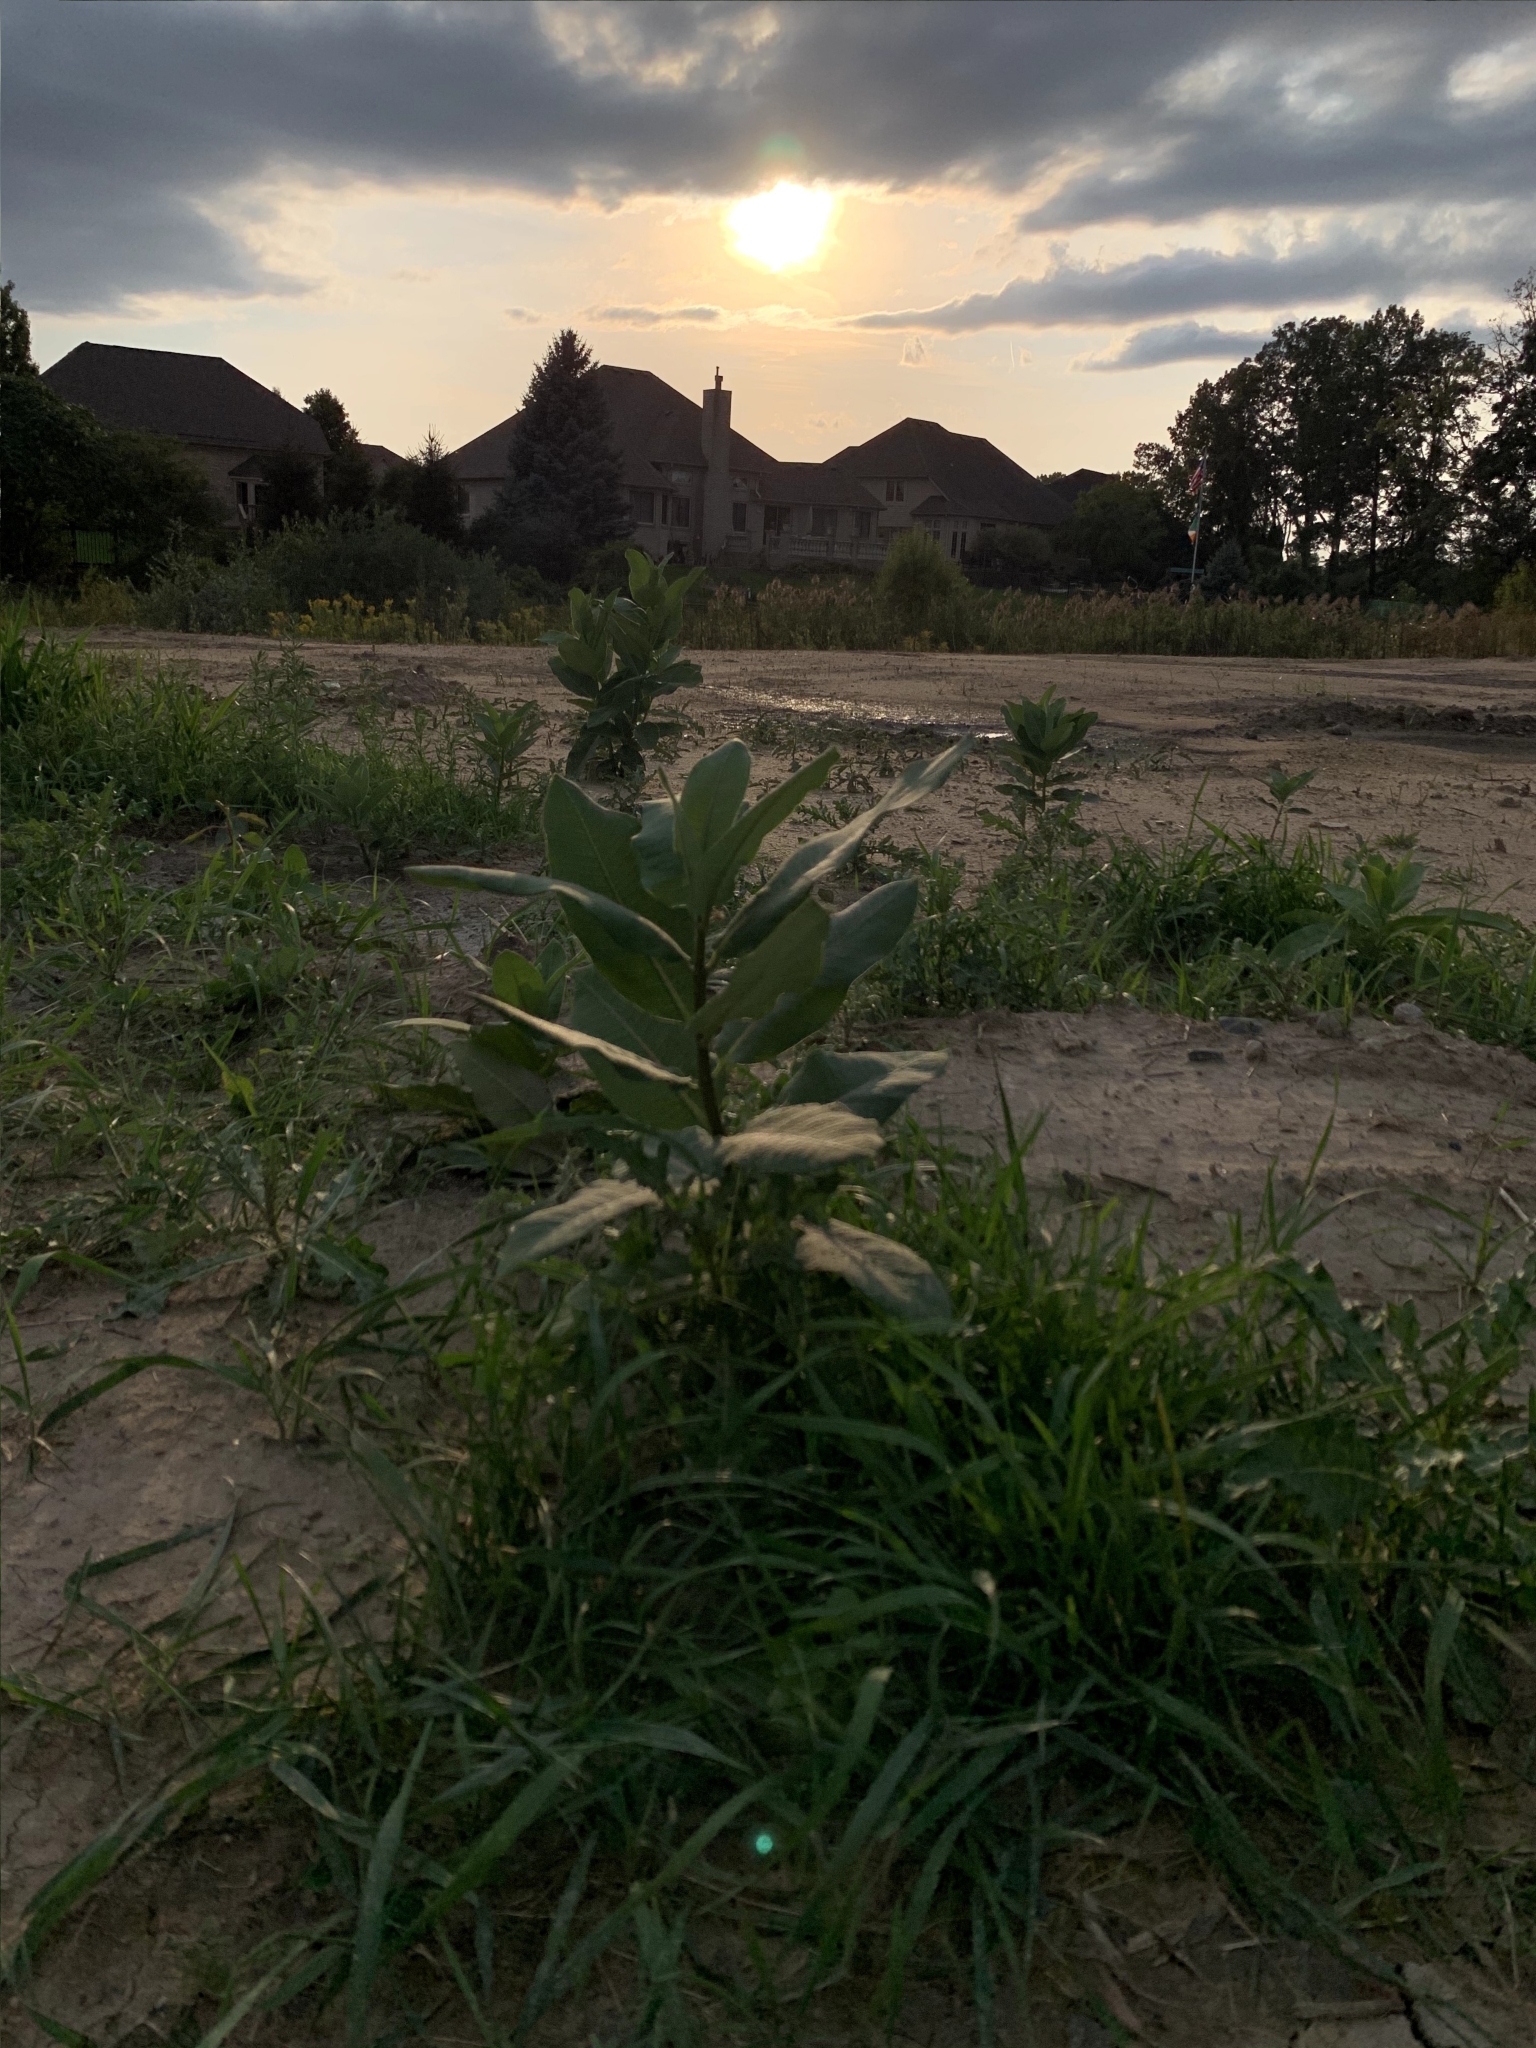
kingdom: Plantae
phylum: Tracheophyta
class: Magnoliopsida
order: Gentianales
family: Apocynaceae
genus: Asclepias
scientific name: Asclepias syriaca
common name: Common milkweed
